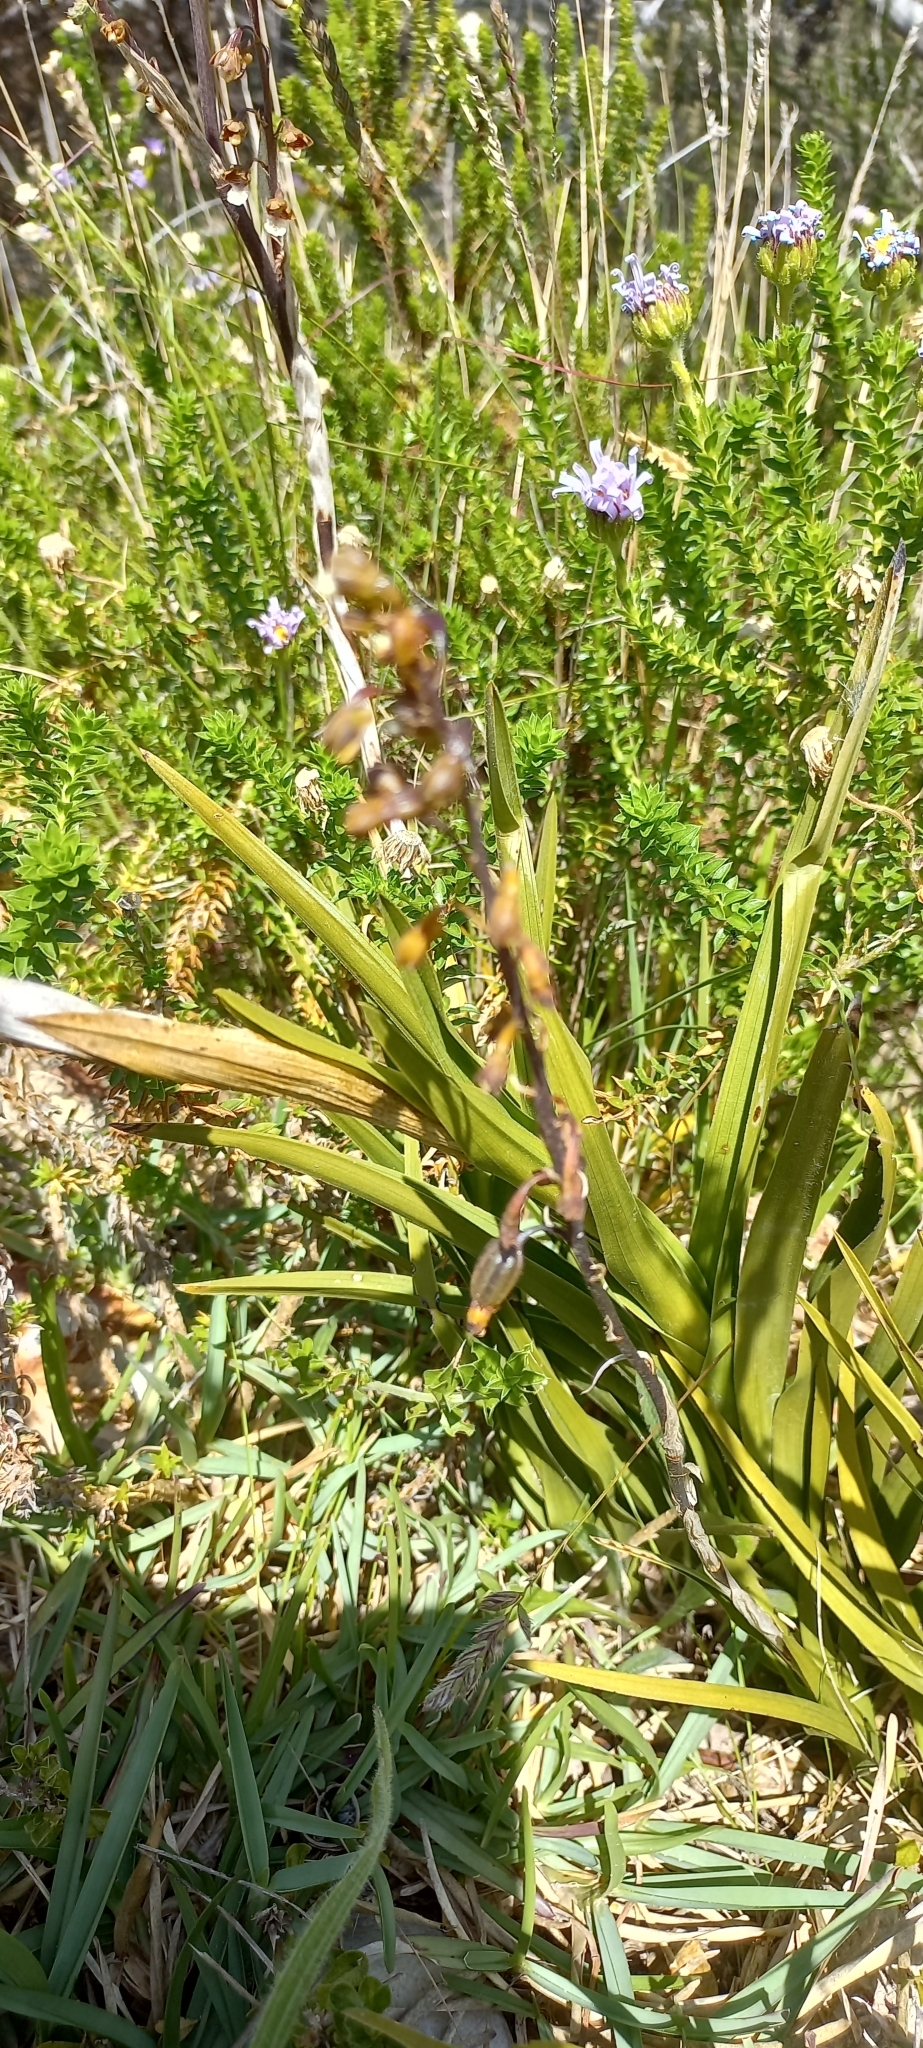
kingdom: Plantae
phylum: Tracheophyta
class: Liliopsida
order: Asparagales
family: Orchidaceae
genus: Eulophia
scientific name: Eulophia micrantha
